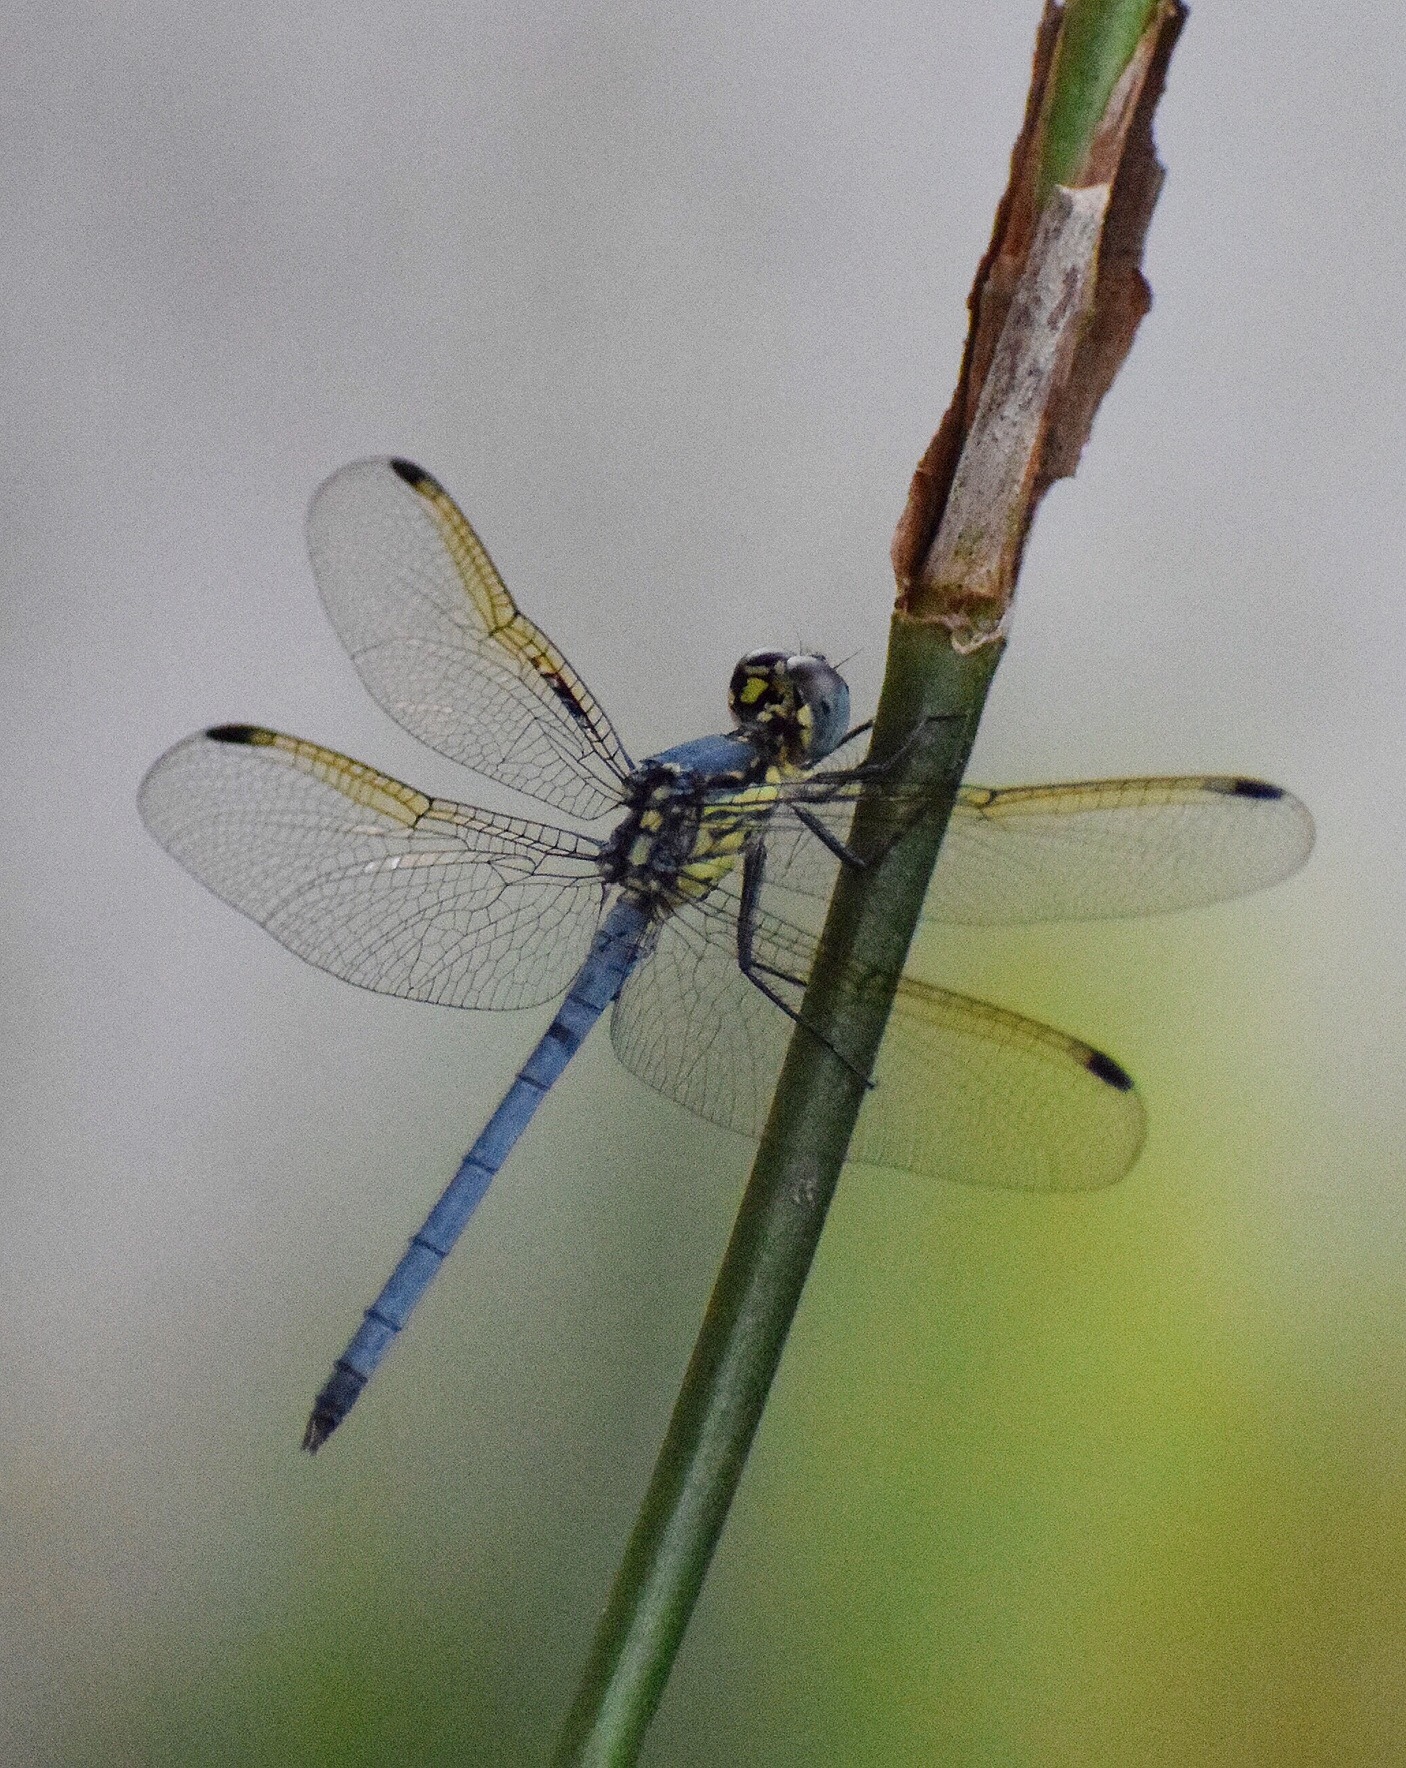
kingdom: Animalia
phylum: Arthropoda
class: Insecta
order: Odonata
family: Libellulidae
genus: Hemistigma
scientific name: Hemistigma albipunctum
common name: African pied-spot
